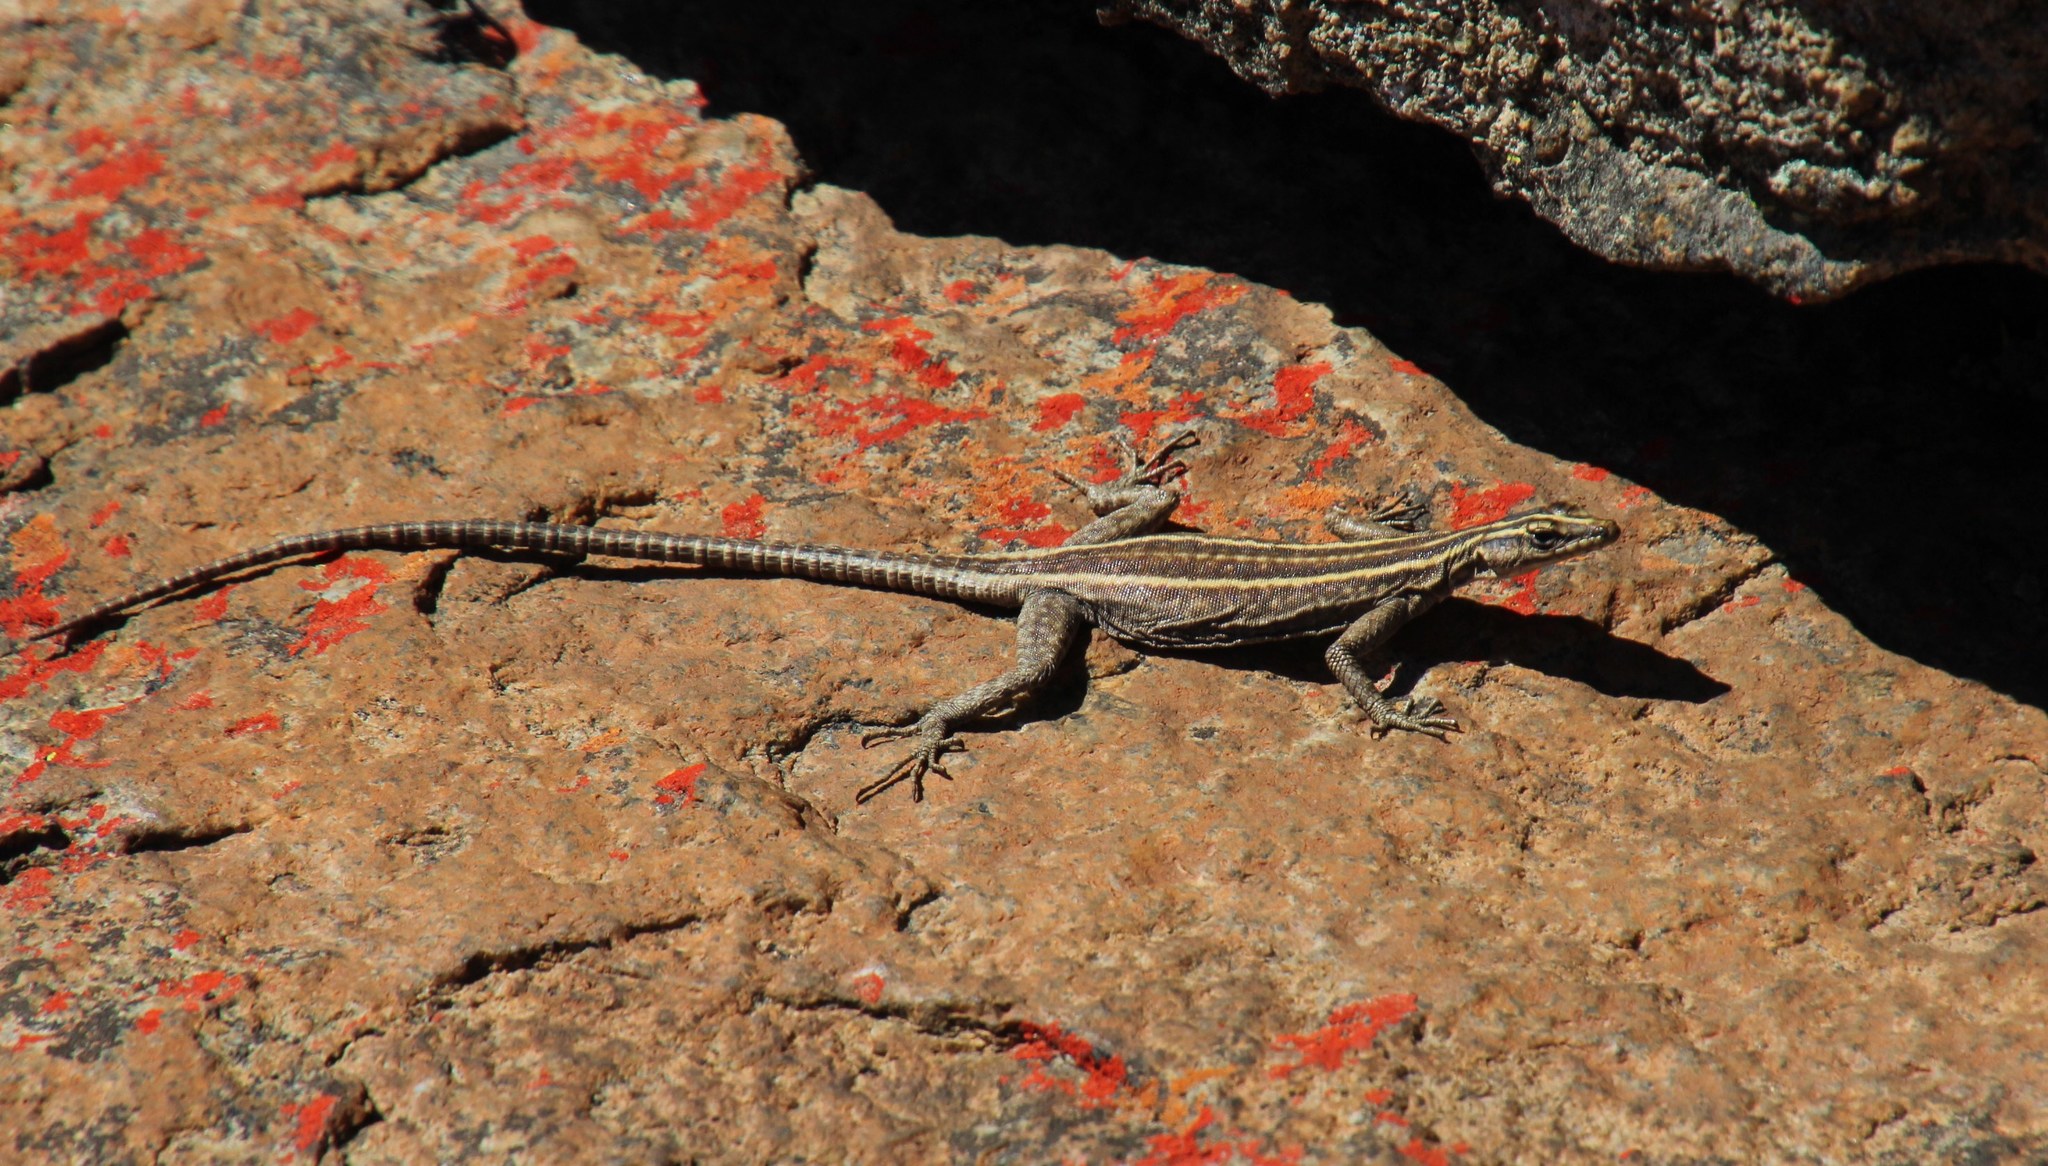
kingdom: Animalia
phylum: Chordata
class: Squamata
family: Cordylidae
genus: Platysaurus
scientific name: Platysaurus capensis
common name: Namaqua flat lizard
